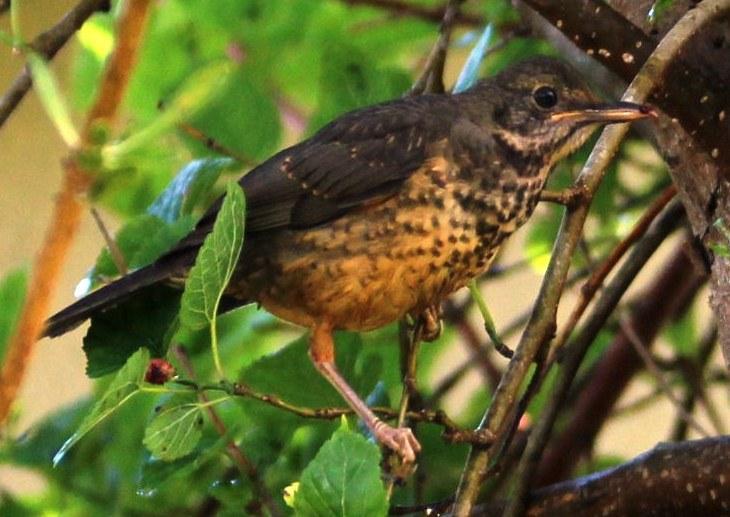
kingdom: Animalia
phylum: Chordata
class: Aves
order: Passeriformes
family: Turdidae
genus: Turdus
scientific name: Turdus olivaceus
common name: Olive thrush
